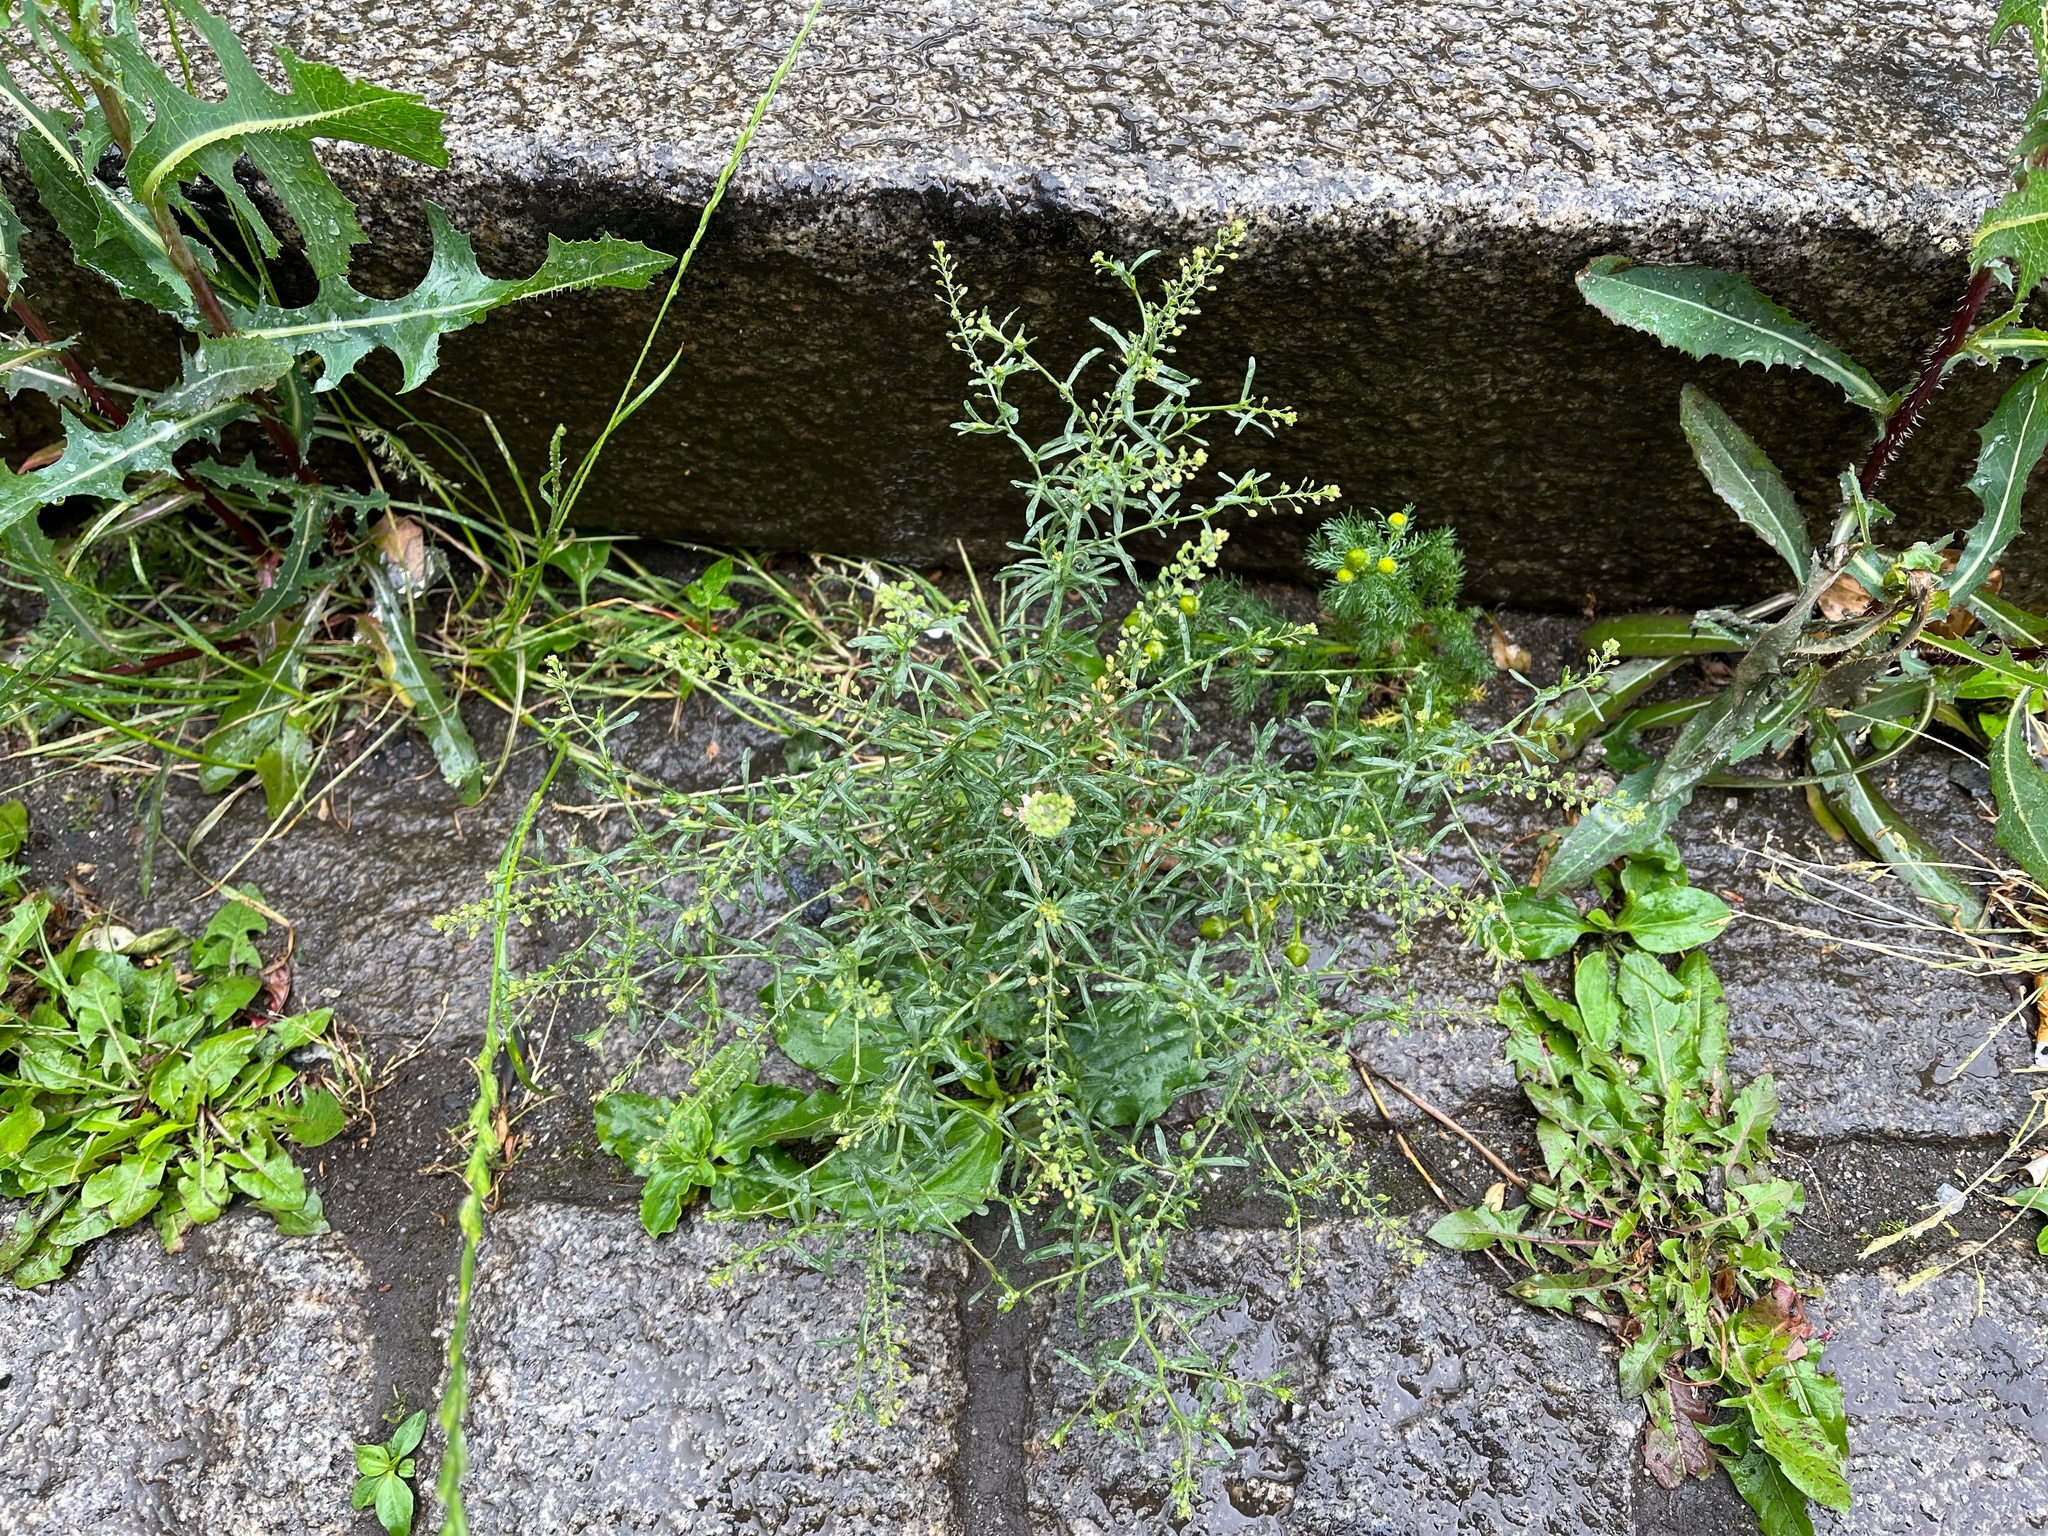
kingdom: Plantae
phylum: Tracheophyta
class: Magnoliopsida
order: Brassicales
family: Brassicaceae
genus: Lepidium
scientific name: Lepidium ruderale
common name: Narrow-leaved pepperwort
